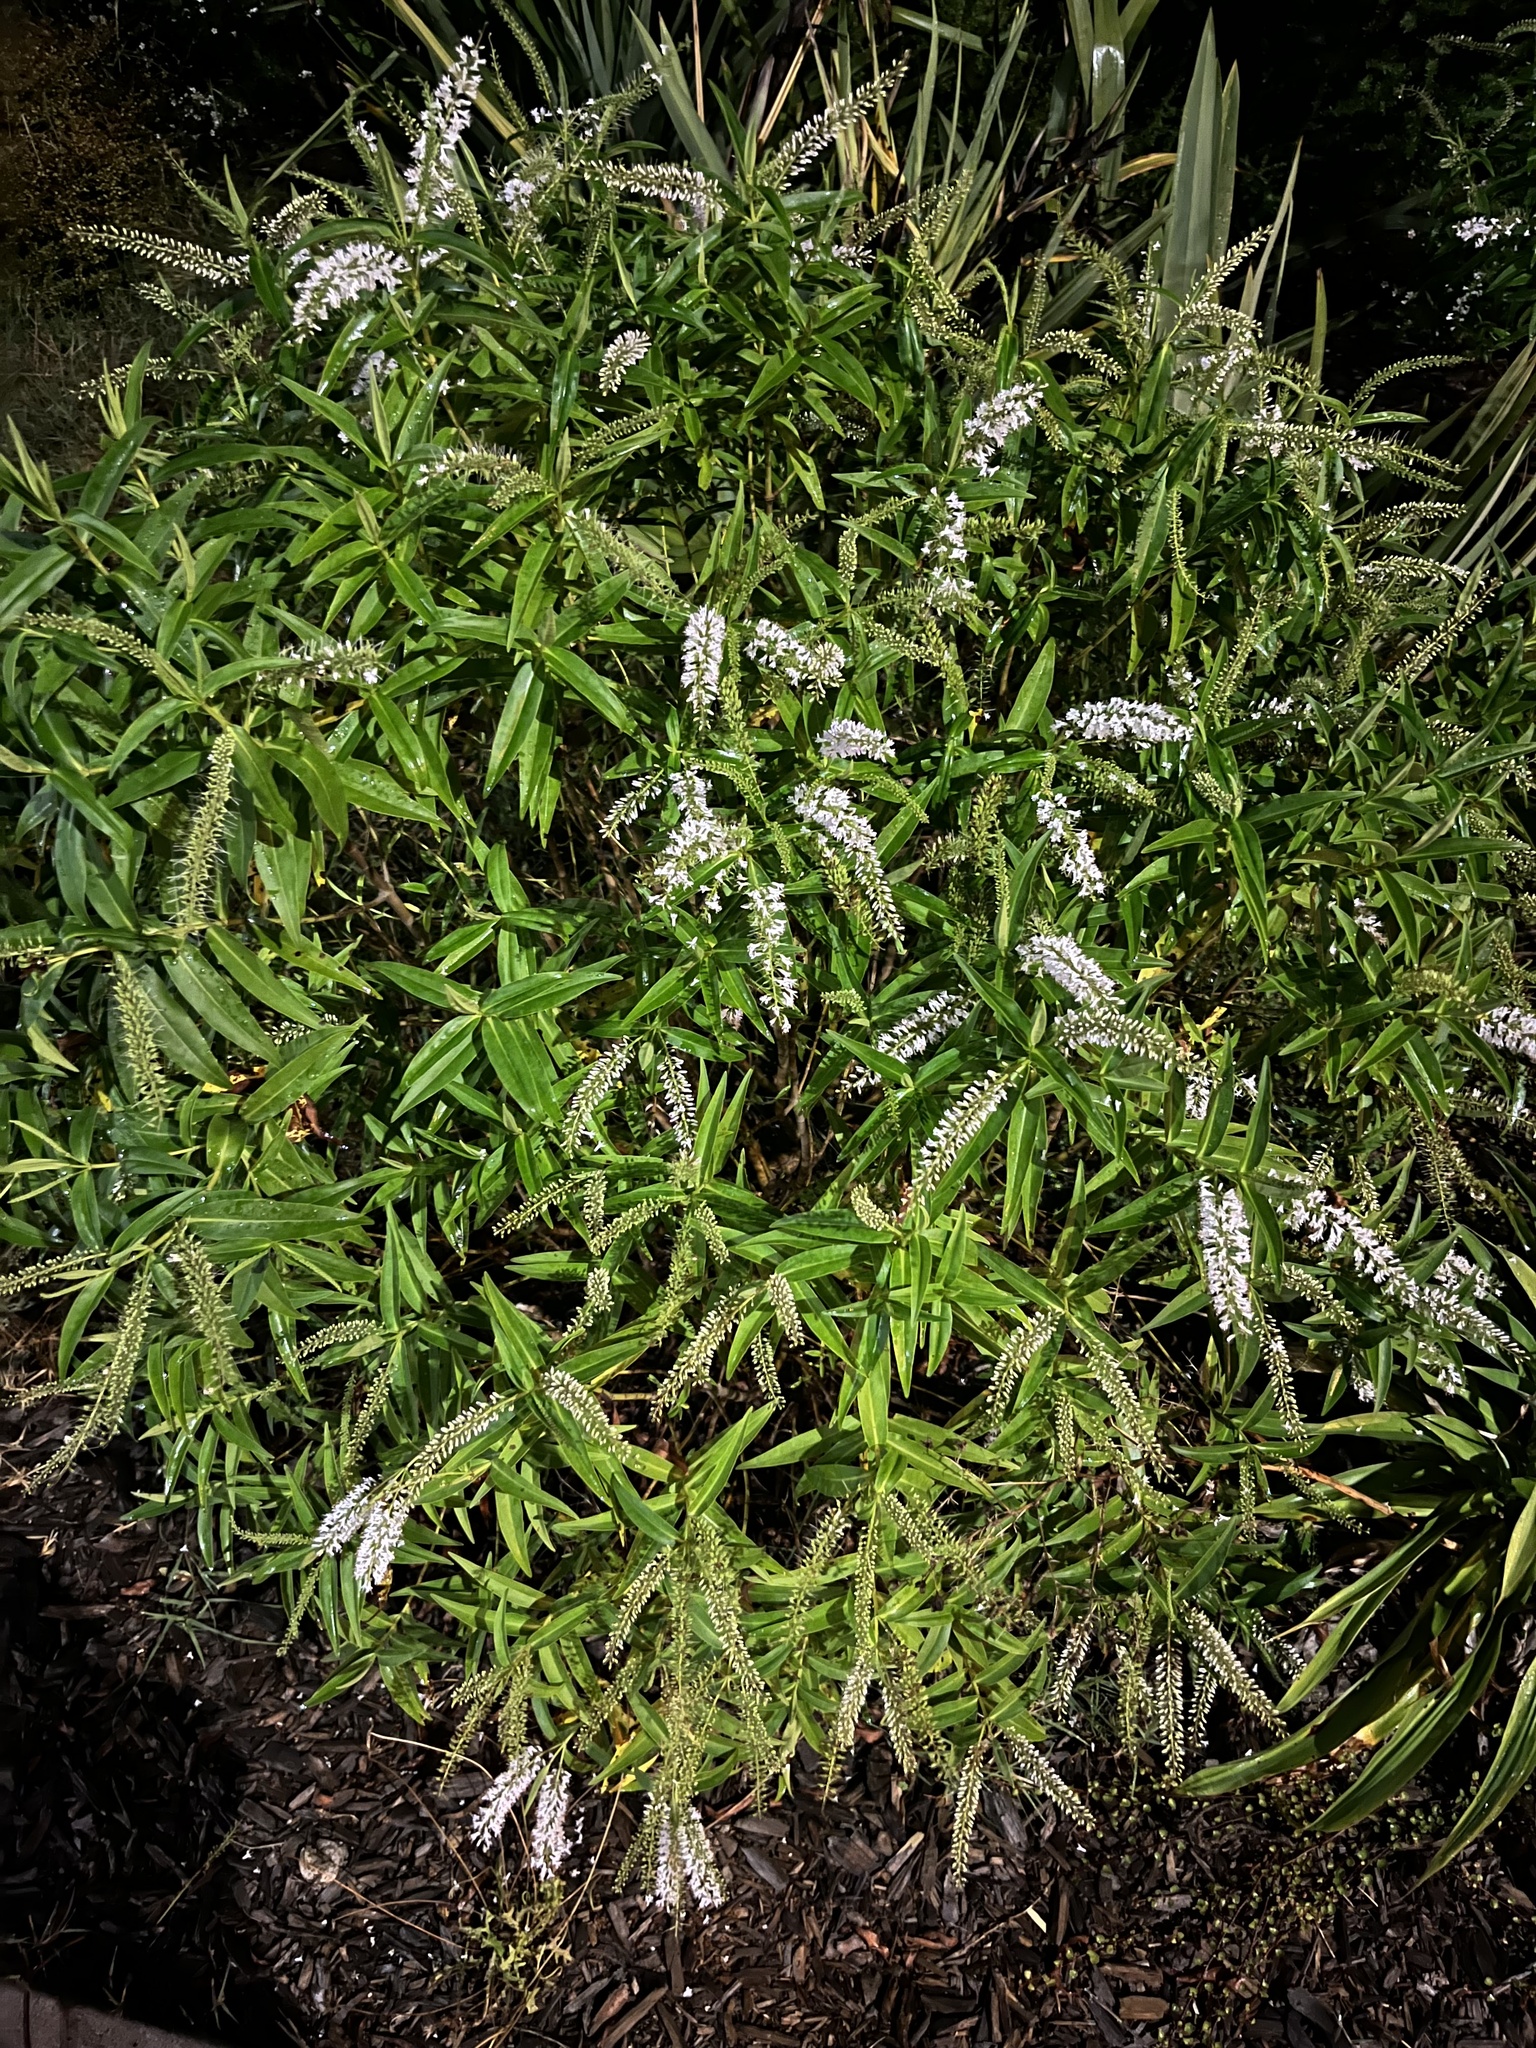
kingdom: Plantae
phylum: Tracheophyta
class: Magnoliopsida
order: Lamiales
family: Plantaginaceae
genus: Veronica
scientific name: Veronica stricta
